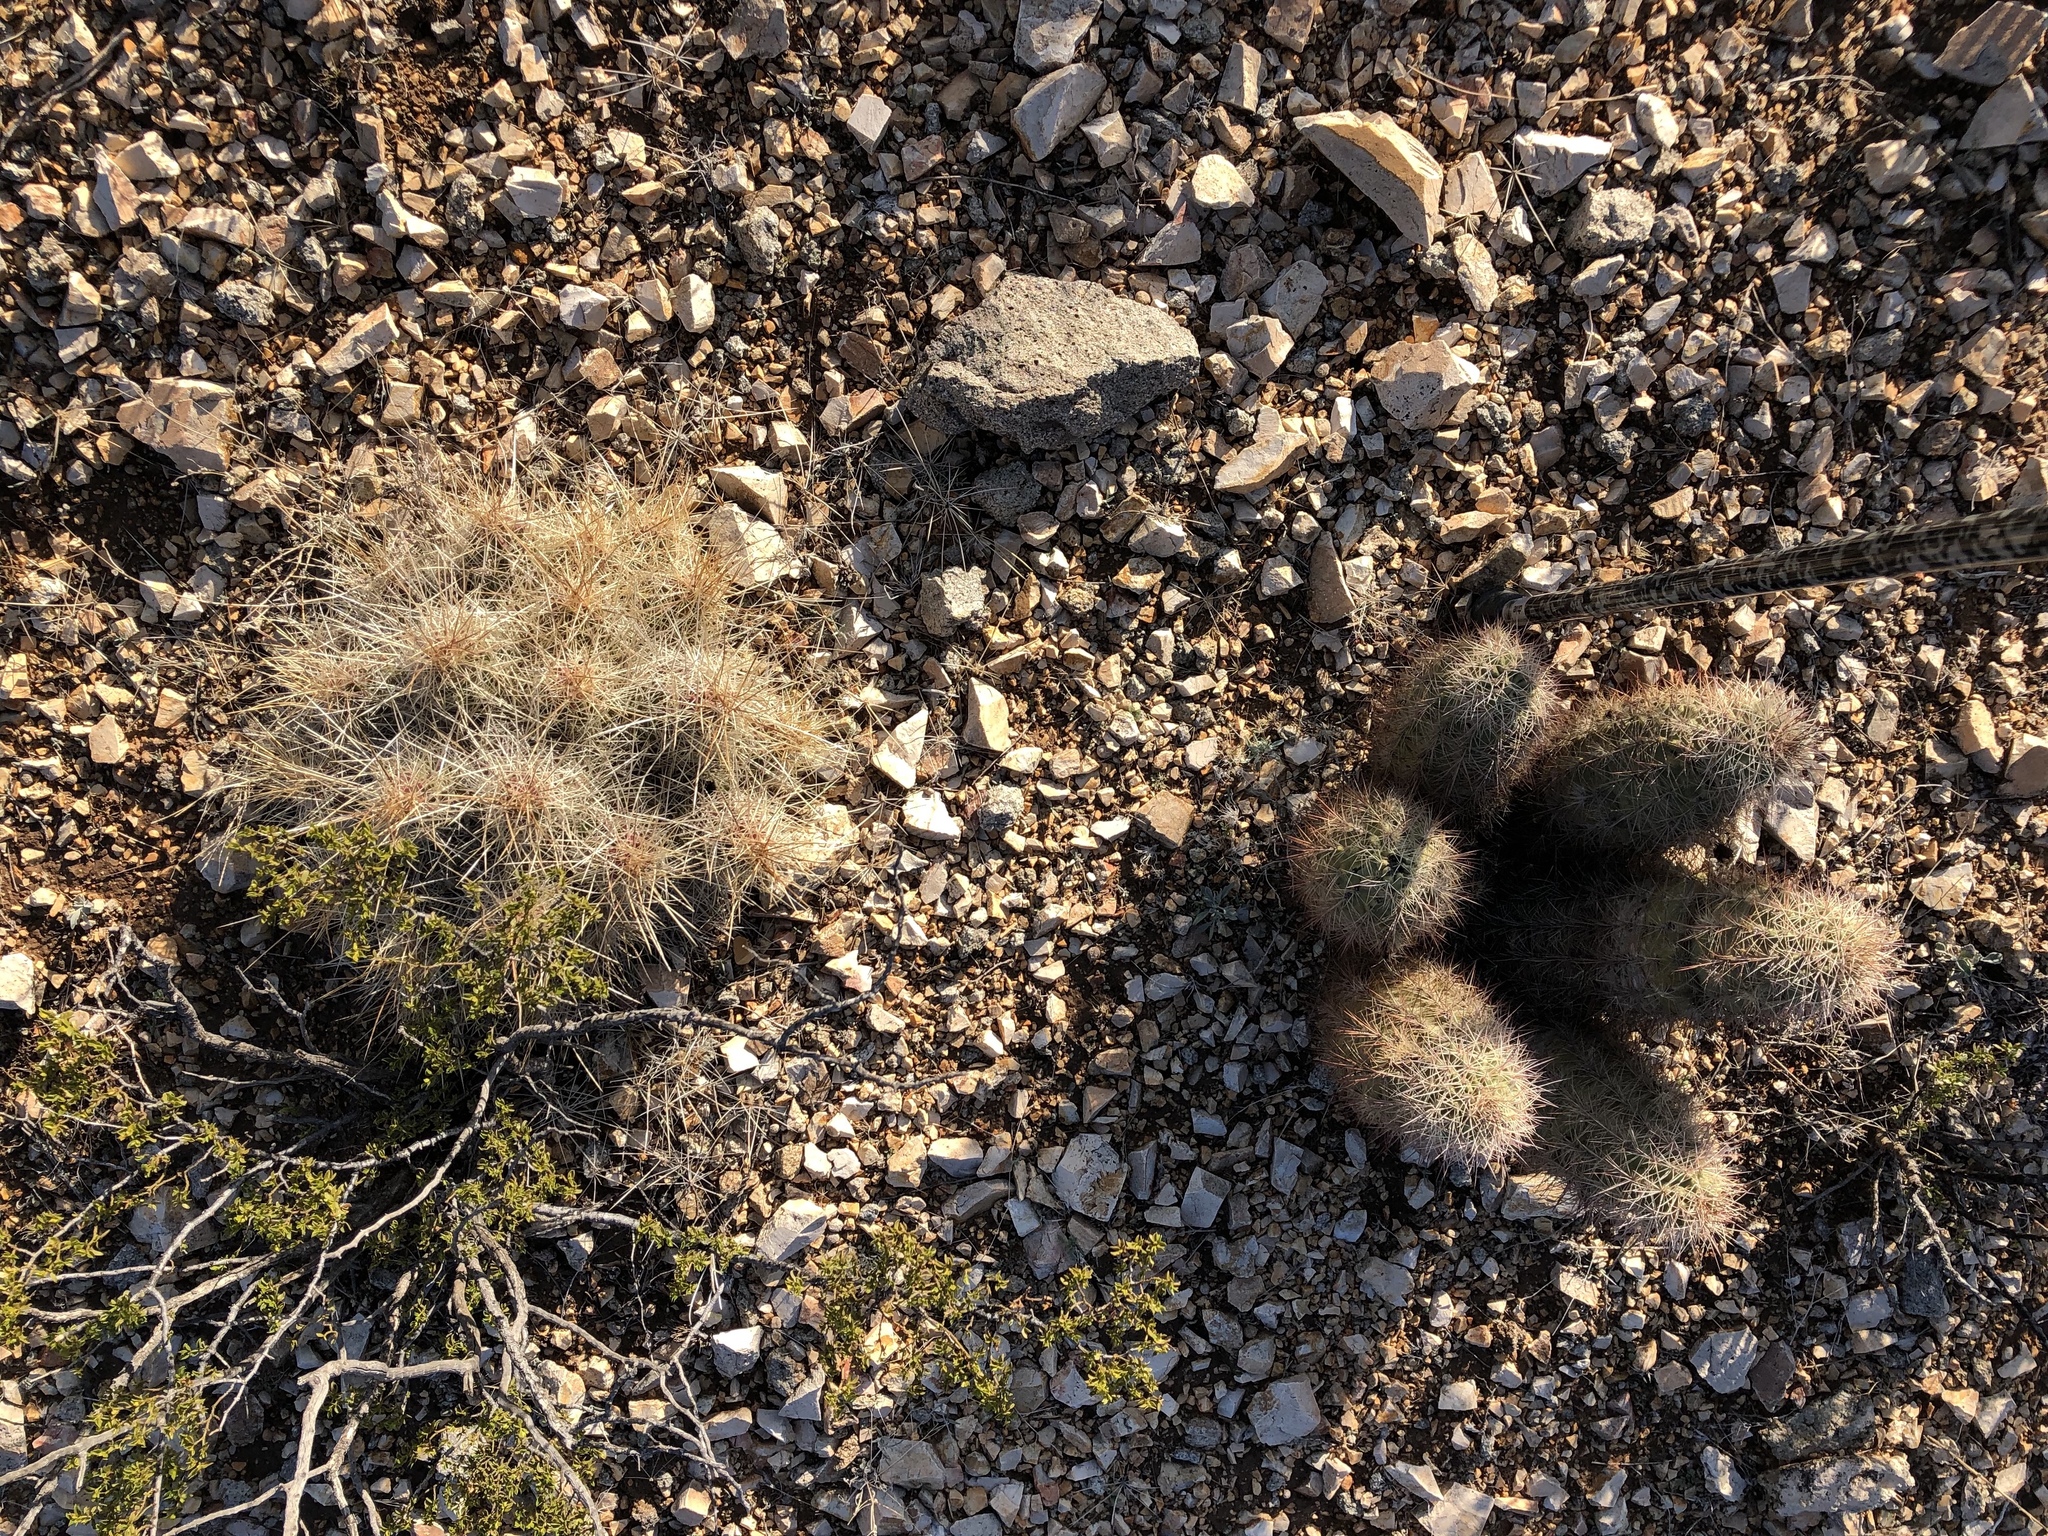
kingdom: Plantae
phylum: Tracheophyta
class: Magnoliopsida
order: Caryophyllales
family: Cactaceae
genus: Echinocereus
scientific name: Echinocereus coccineus
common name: Scarlet hedgehog cactus
